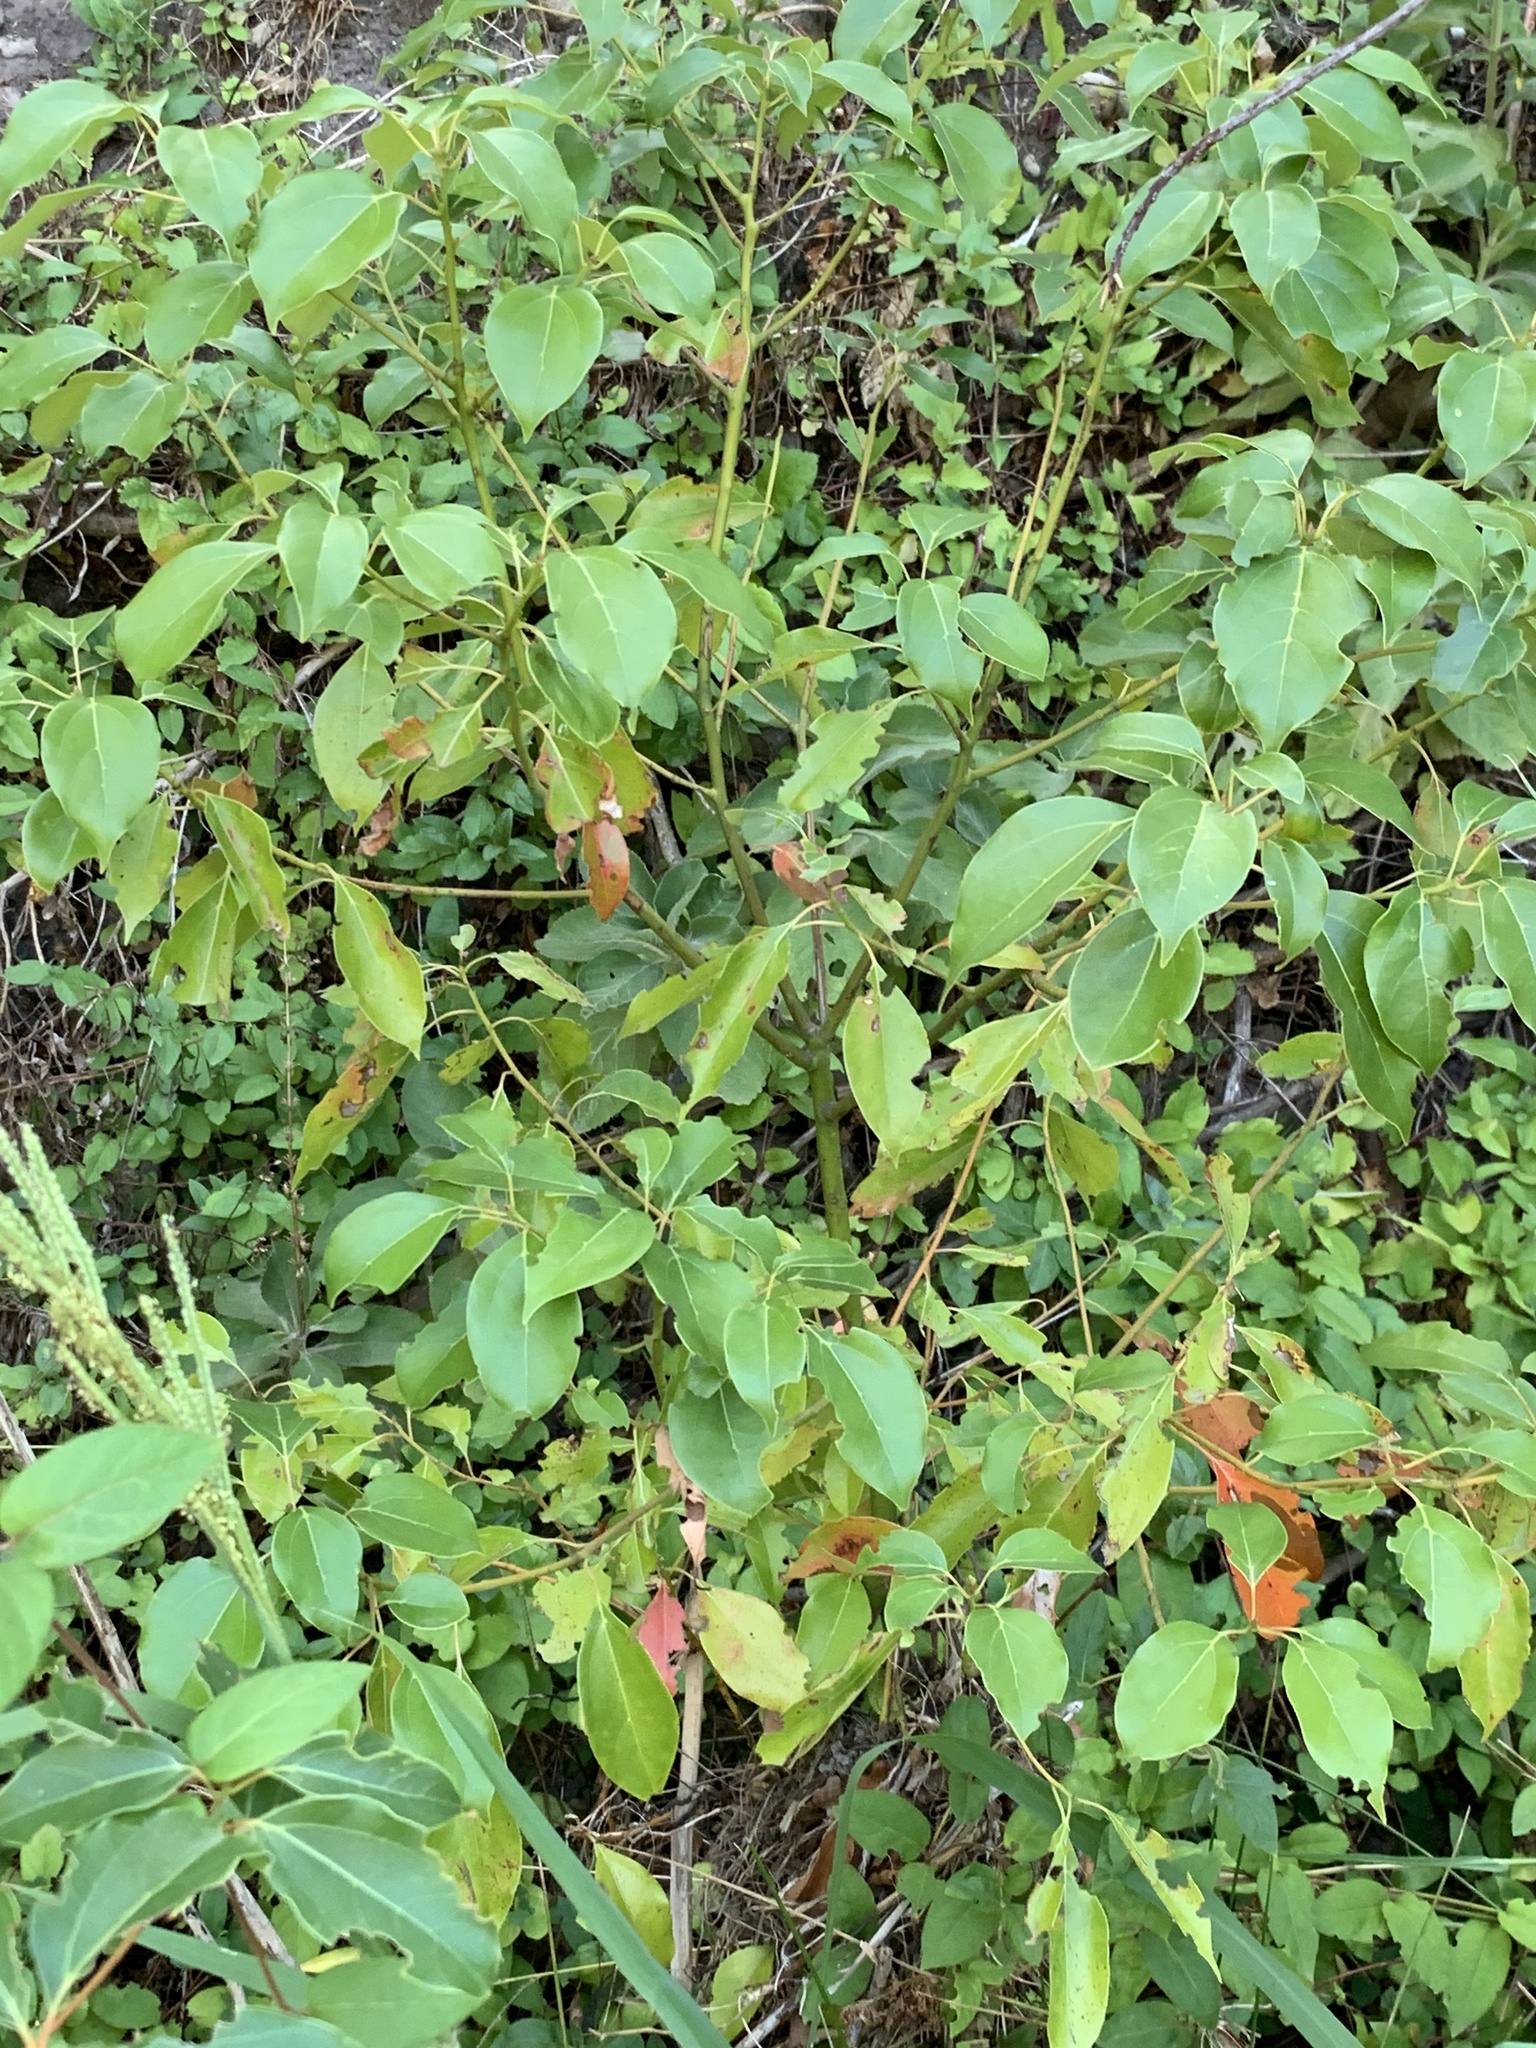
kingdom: Plantae
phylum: Tracheophyta
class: Magnoliopsida
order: Laurales
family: Lauraceae
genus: Cinnamomum
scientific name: Cinnamomum camphora
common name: Camphortree
